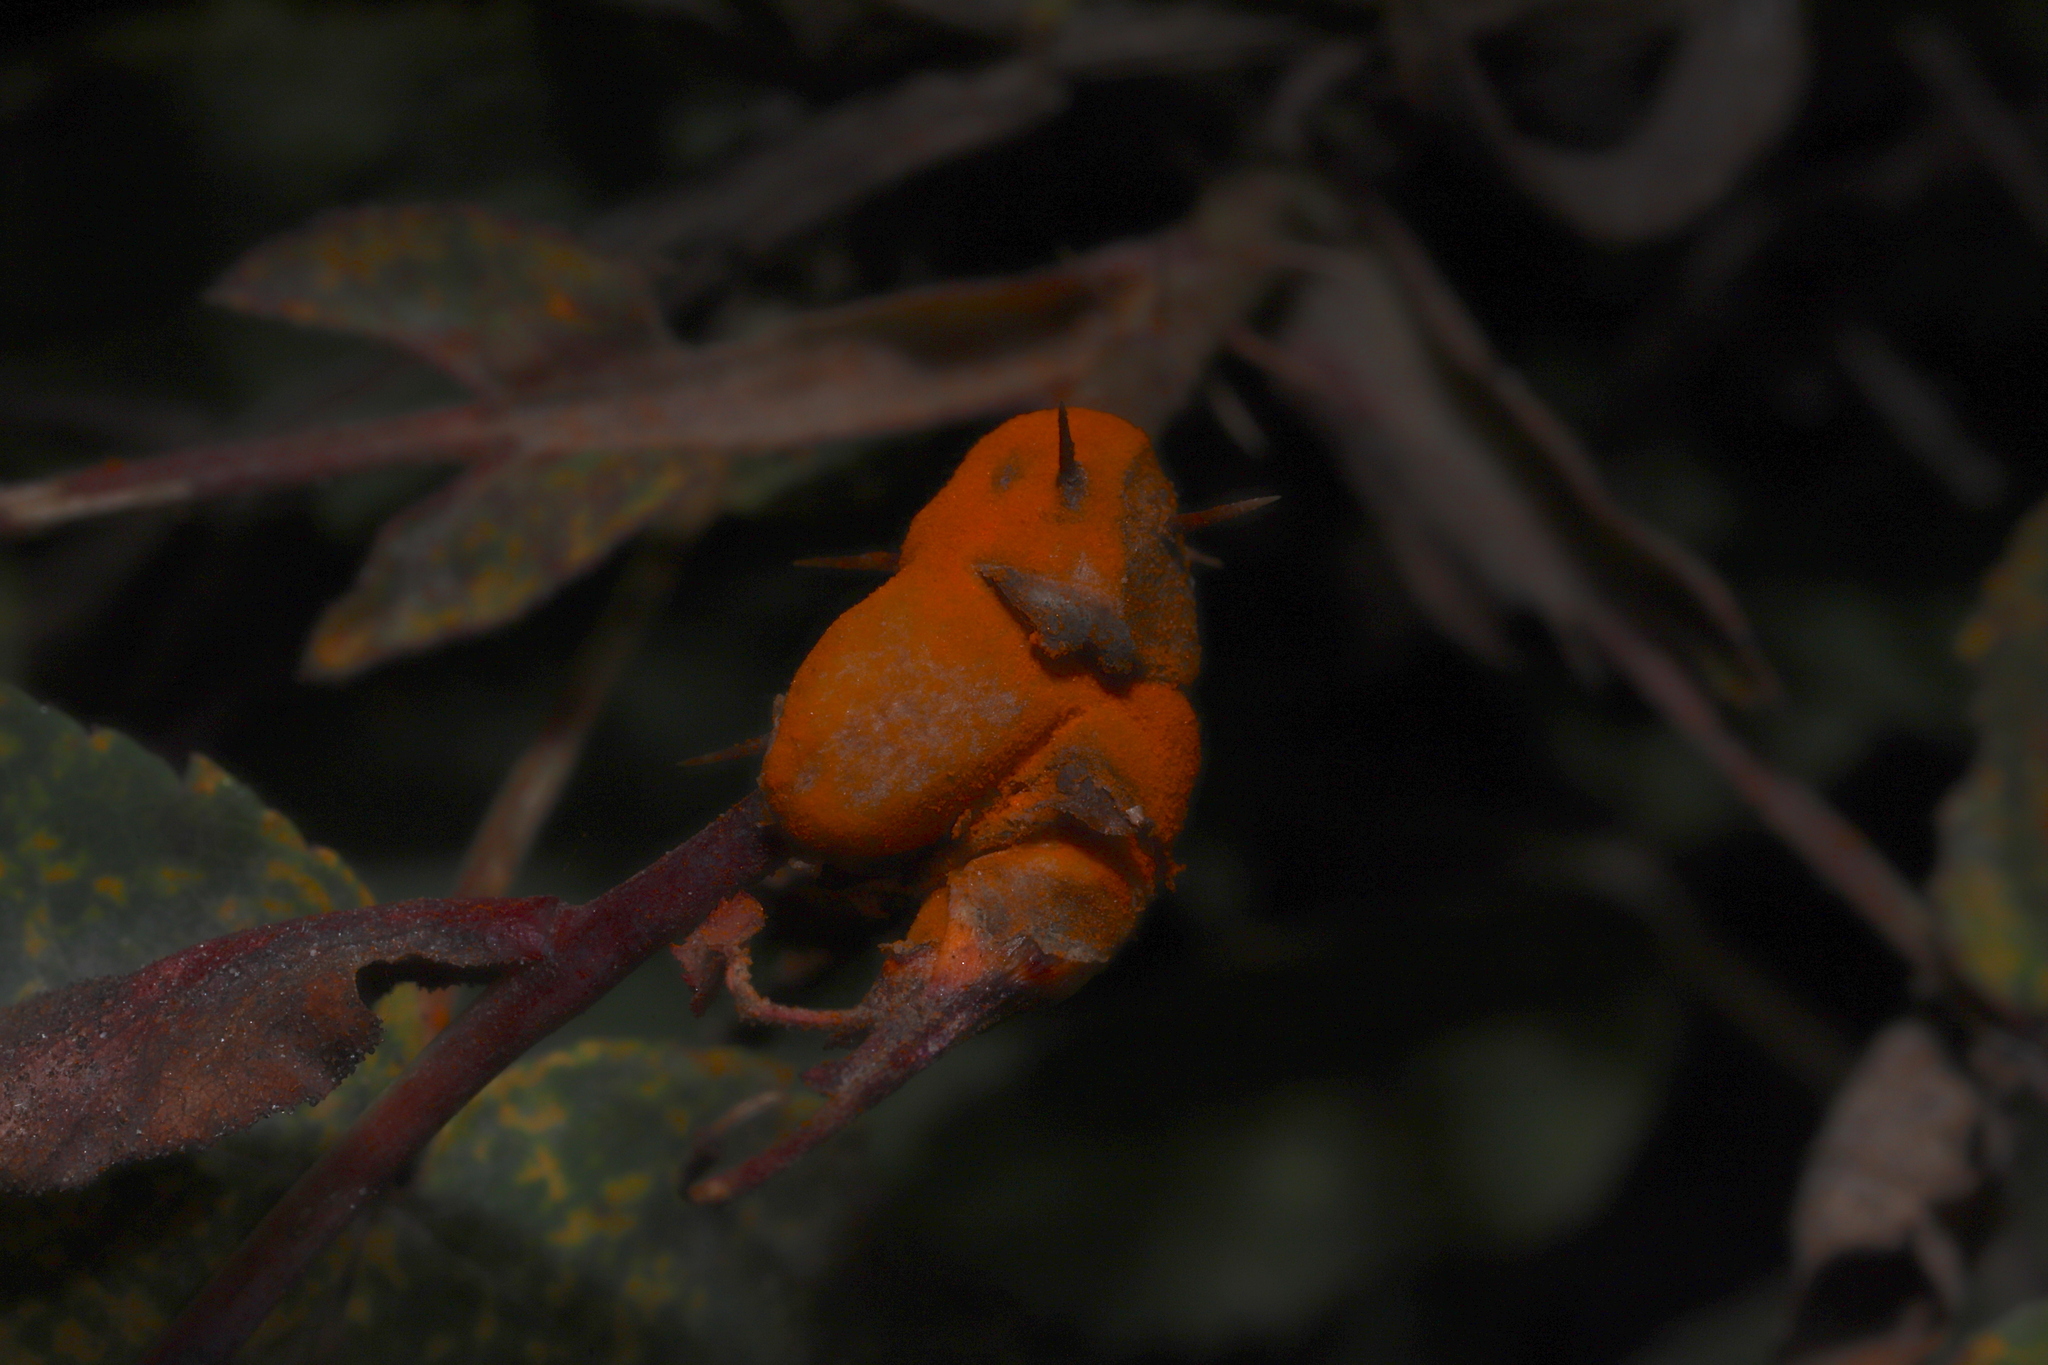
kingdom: Fungi
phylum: Basidiomycota
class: Pucciniomycetes
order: Pucciniales
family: Phragmidiaceae
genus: Phragmidium
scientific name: Phragmidium rosae-multiflorae
